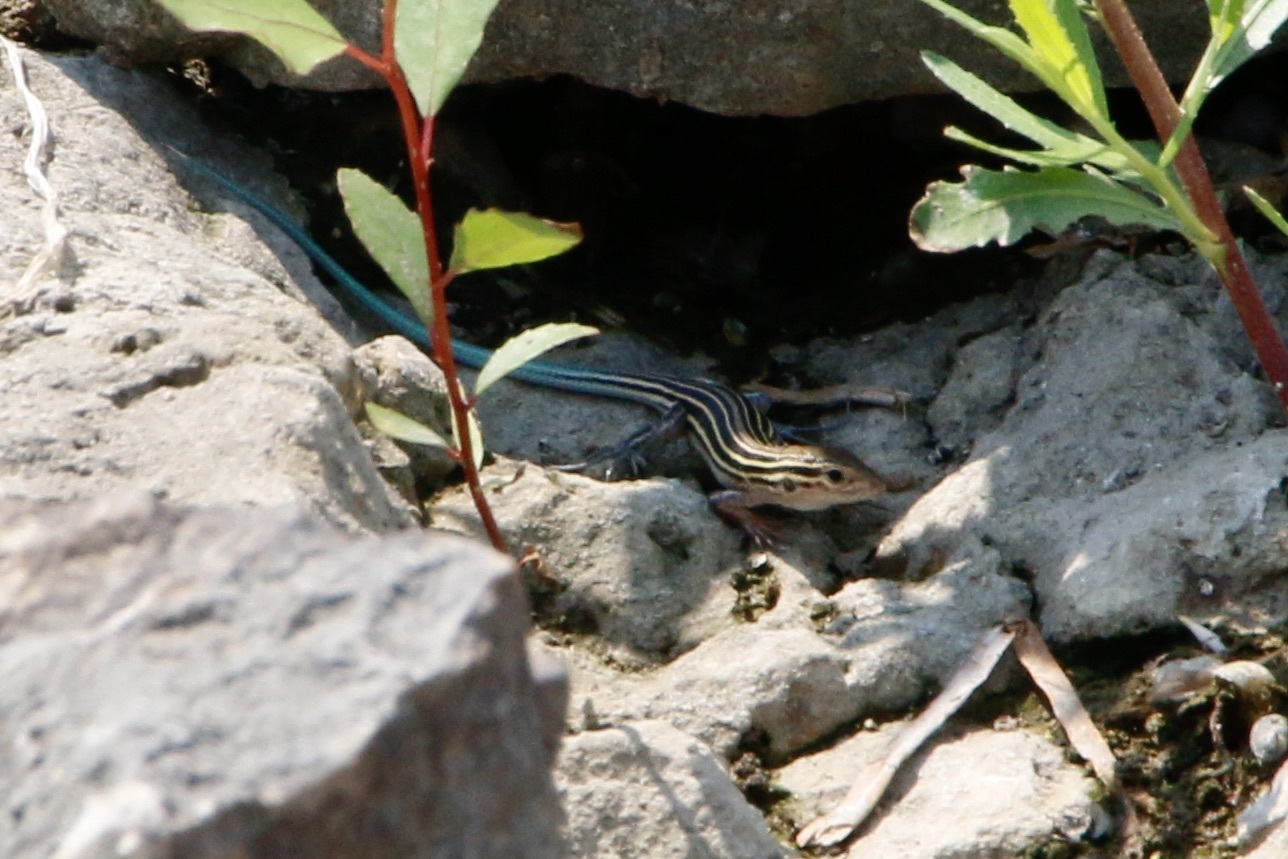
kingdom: Animalia
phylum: Chordata
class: Squamata
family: Teiidae
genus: Aspidoscelis
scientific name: Aspidoscelis sexlineatus
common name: Six-lined racerunner
